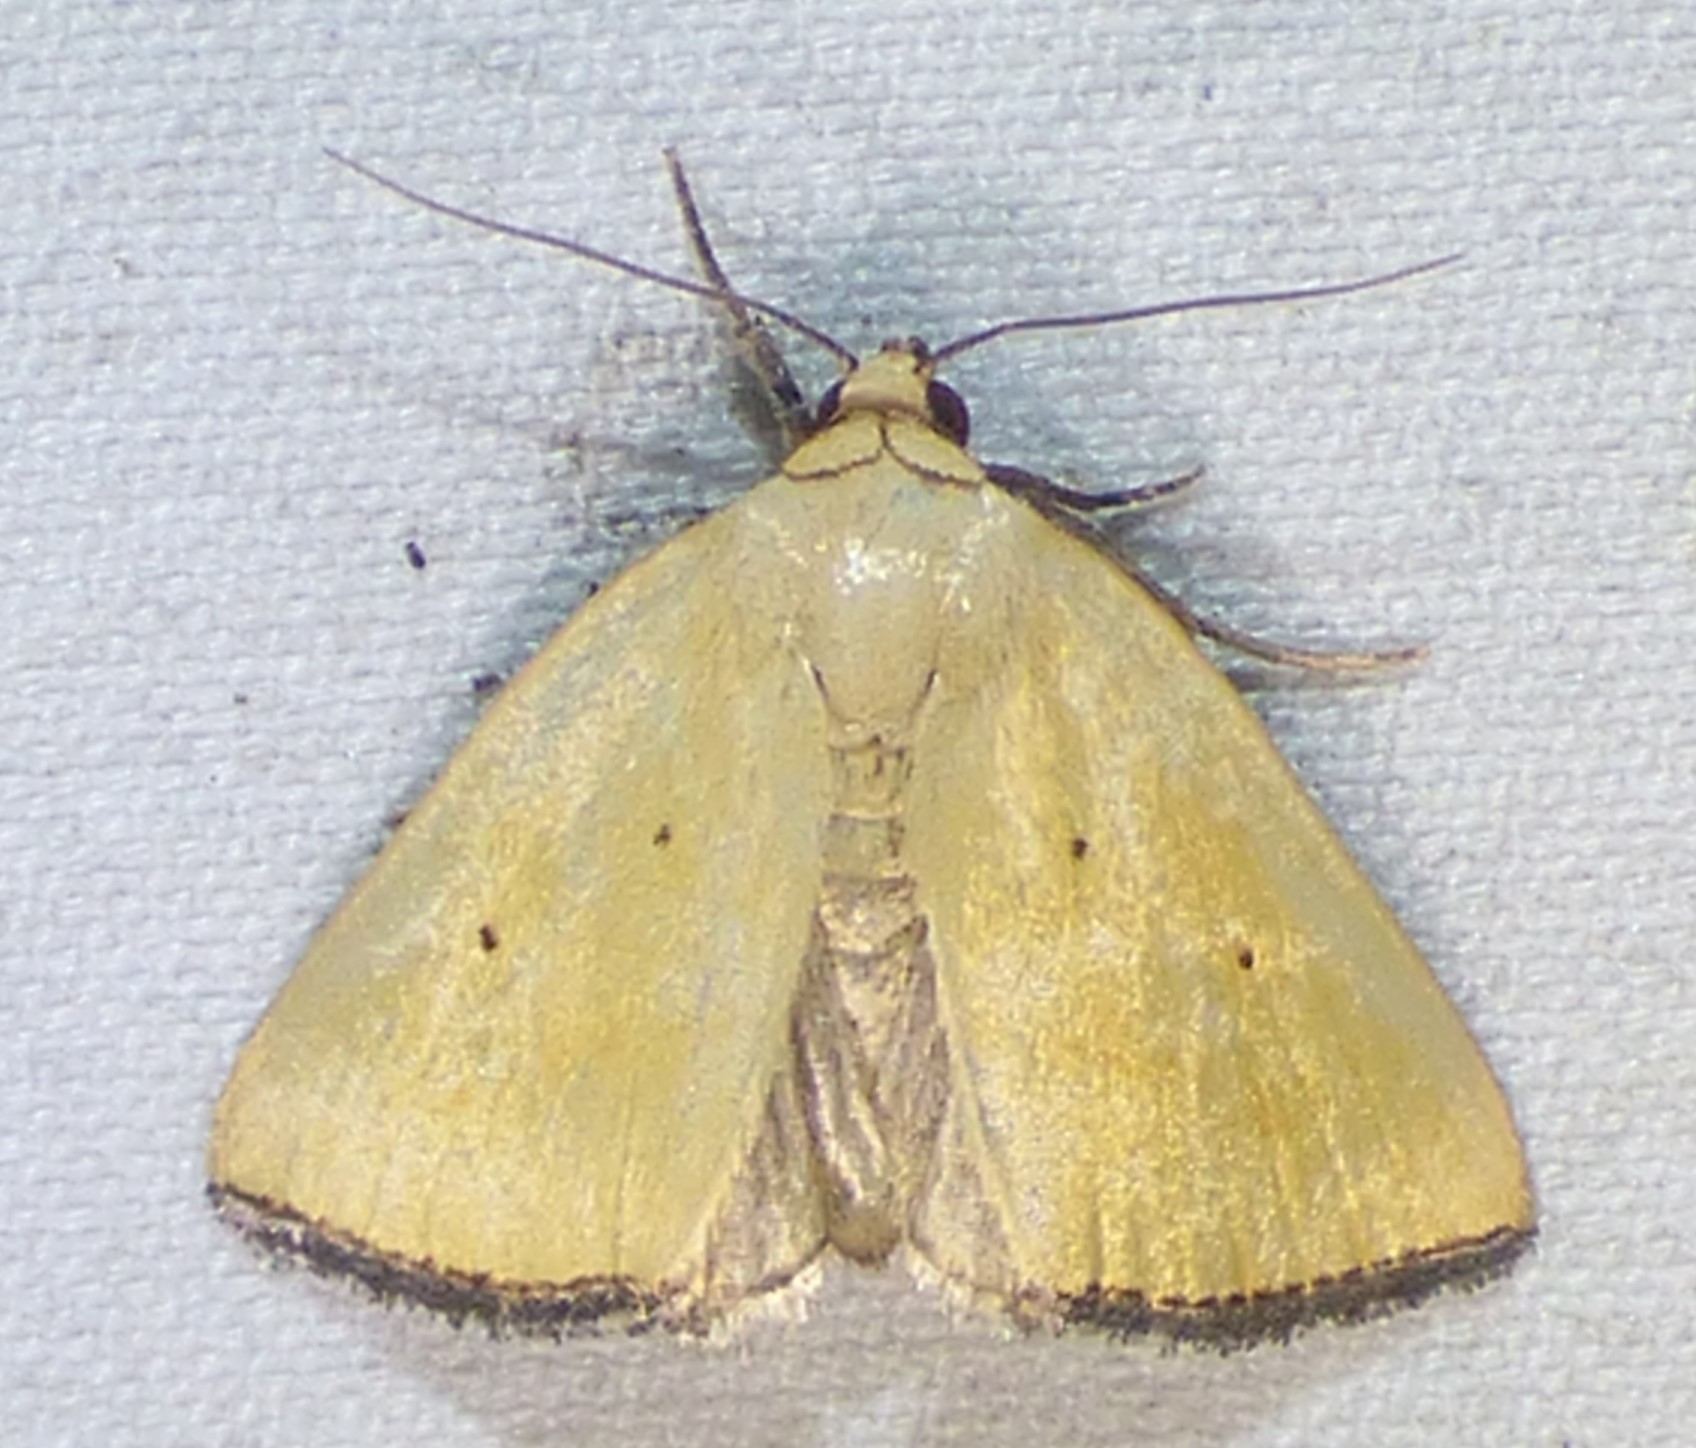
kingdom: Animalia
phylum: Arthropoda
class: Insecta
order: Lepidoptera
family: Noctuidae
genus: Marimatha
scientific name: Marimatha nigrofimbria
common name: Black-bordered lemon moth
